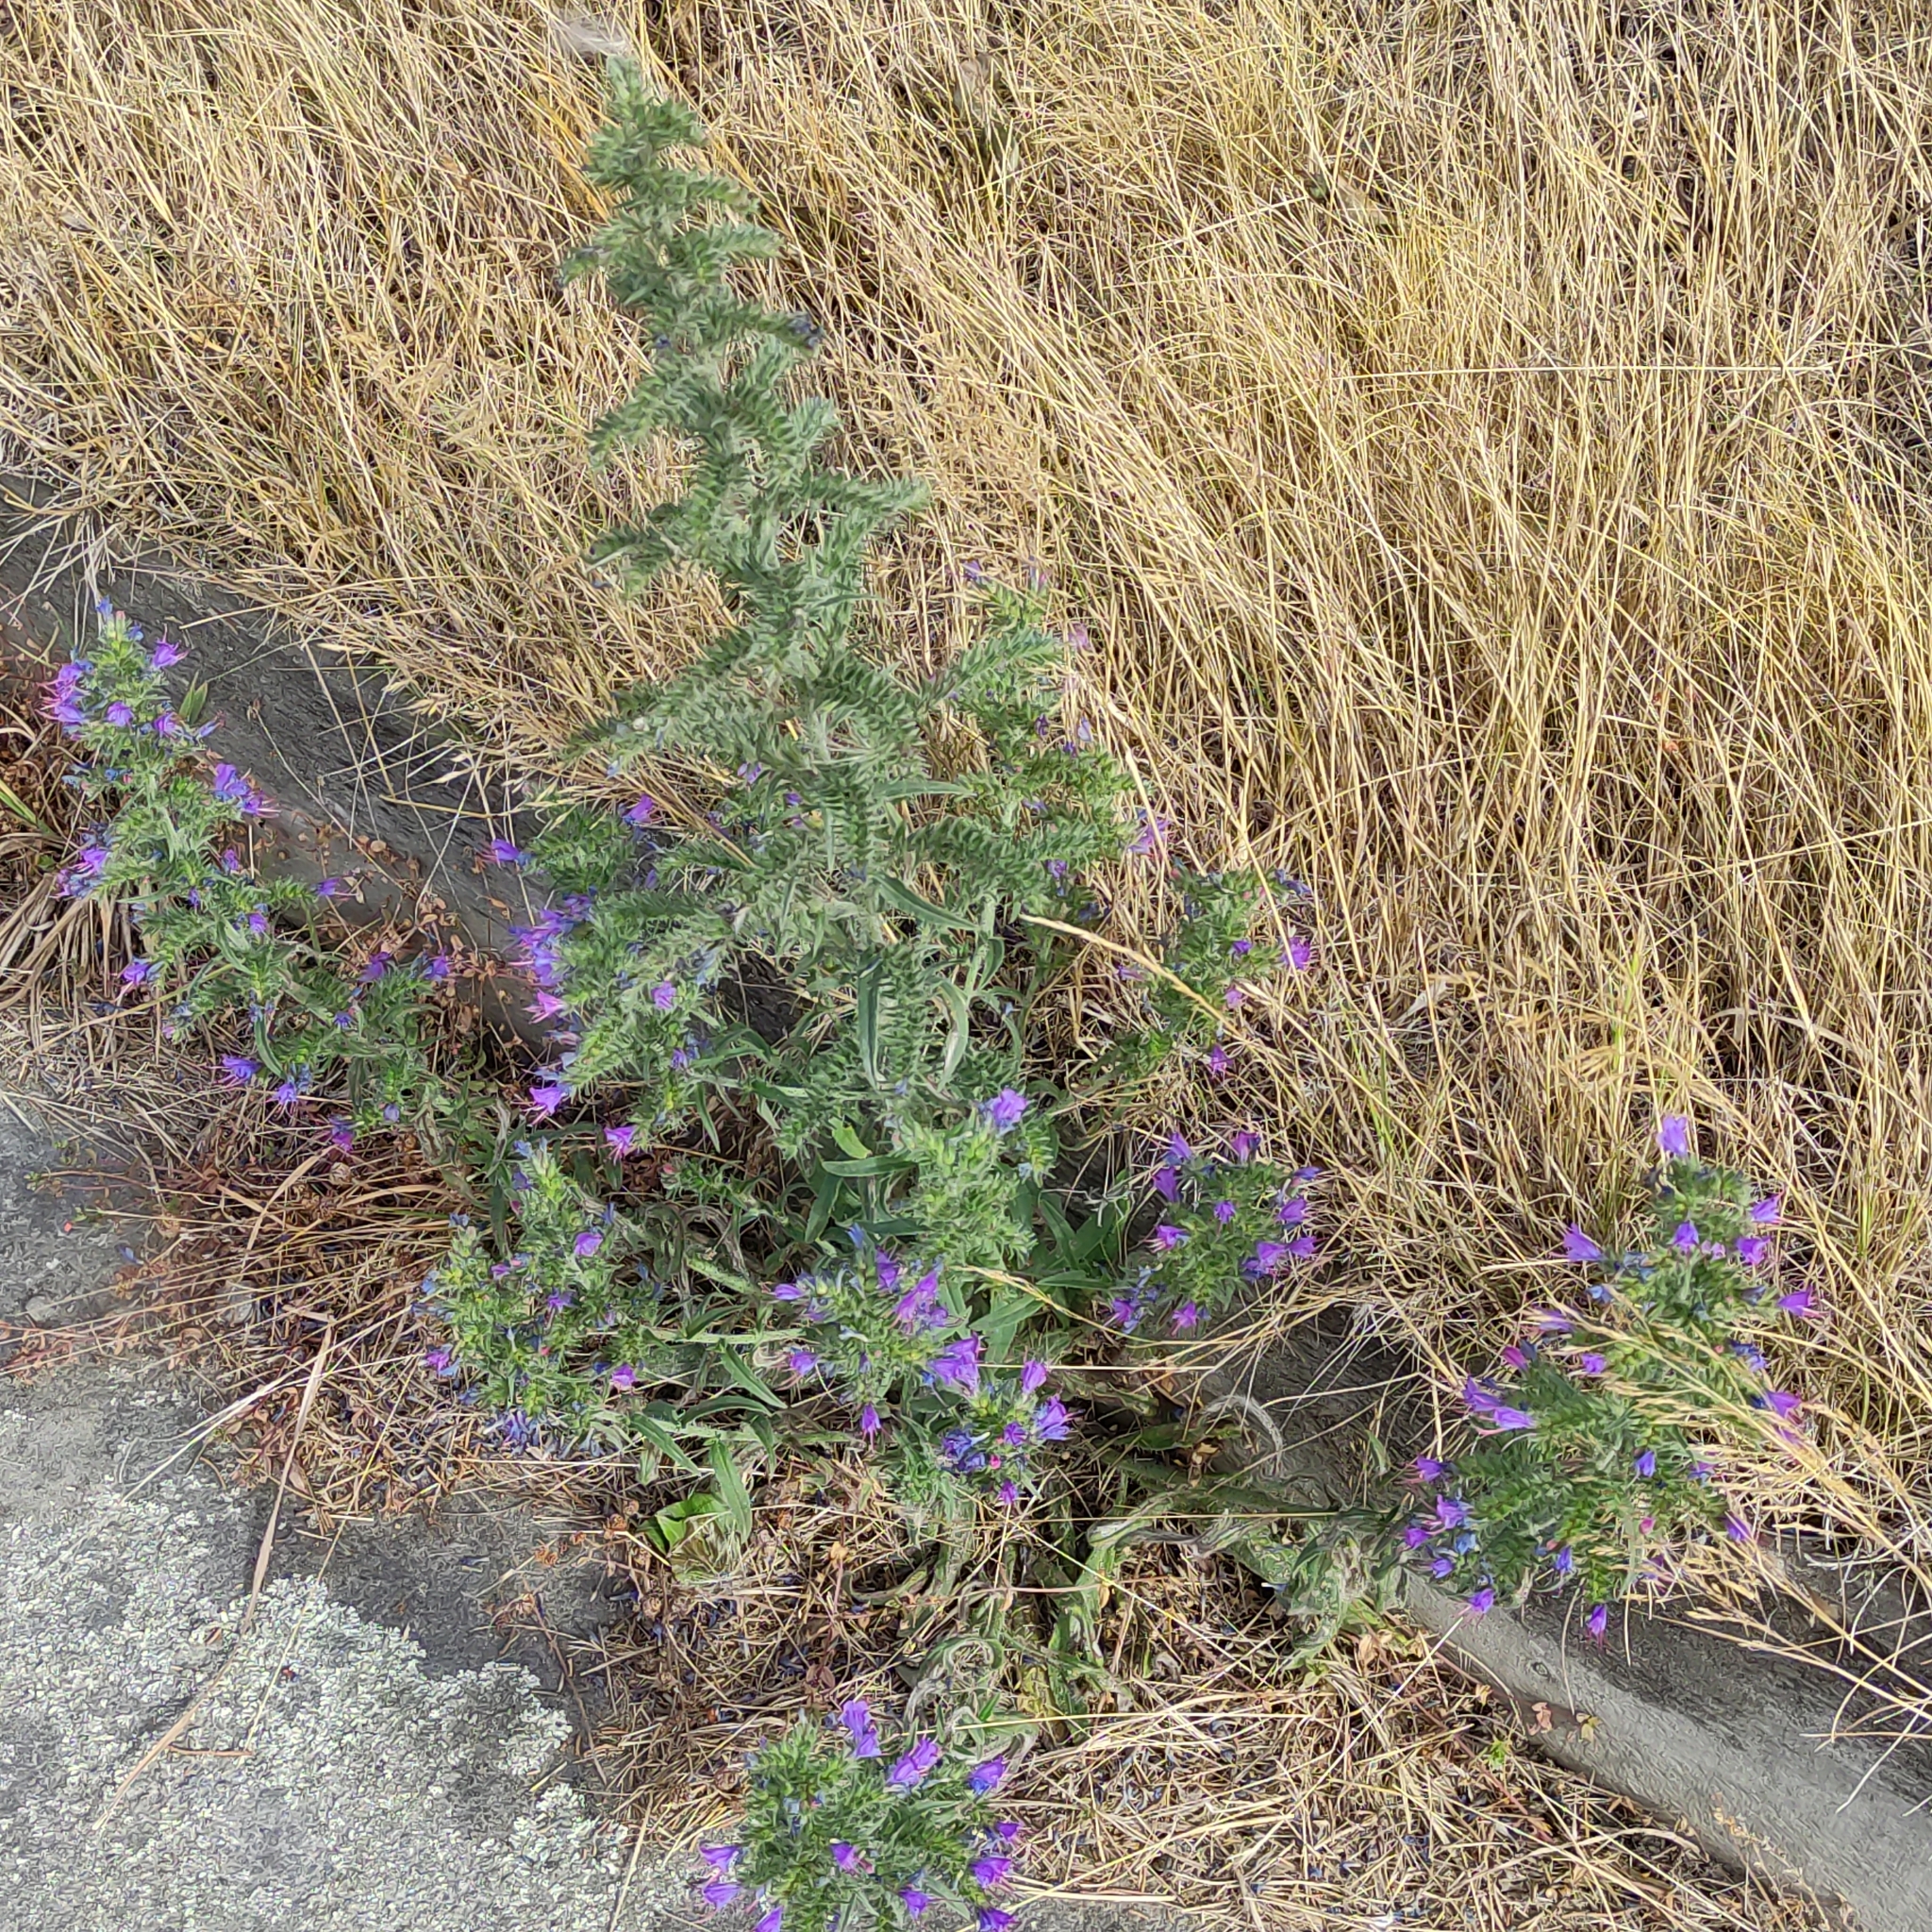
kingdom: Plantae
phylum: Tracheophyta
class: Magnoliopsida
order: Boraginales
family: Boraginaceae
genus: Echium
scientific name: Echium vulgare
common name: Common viper's bugloss
